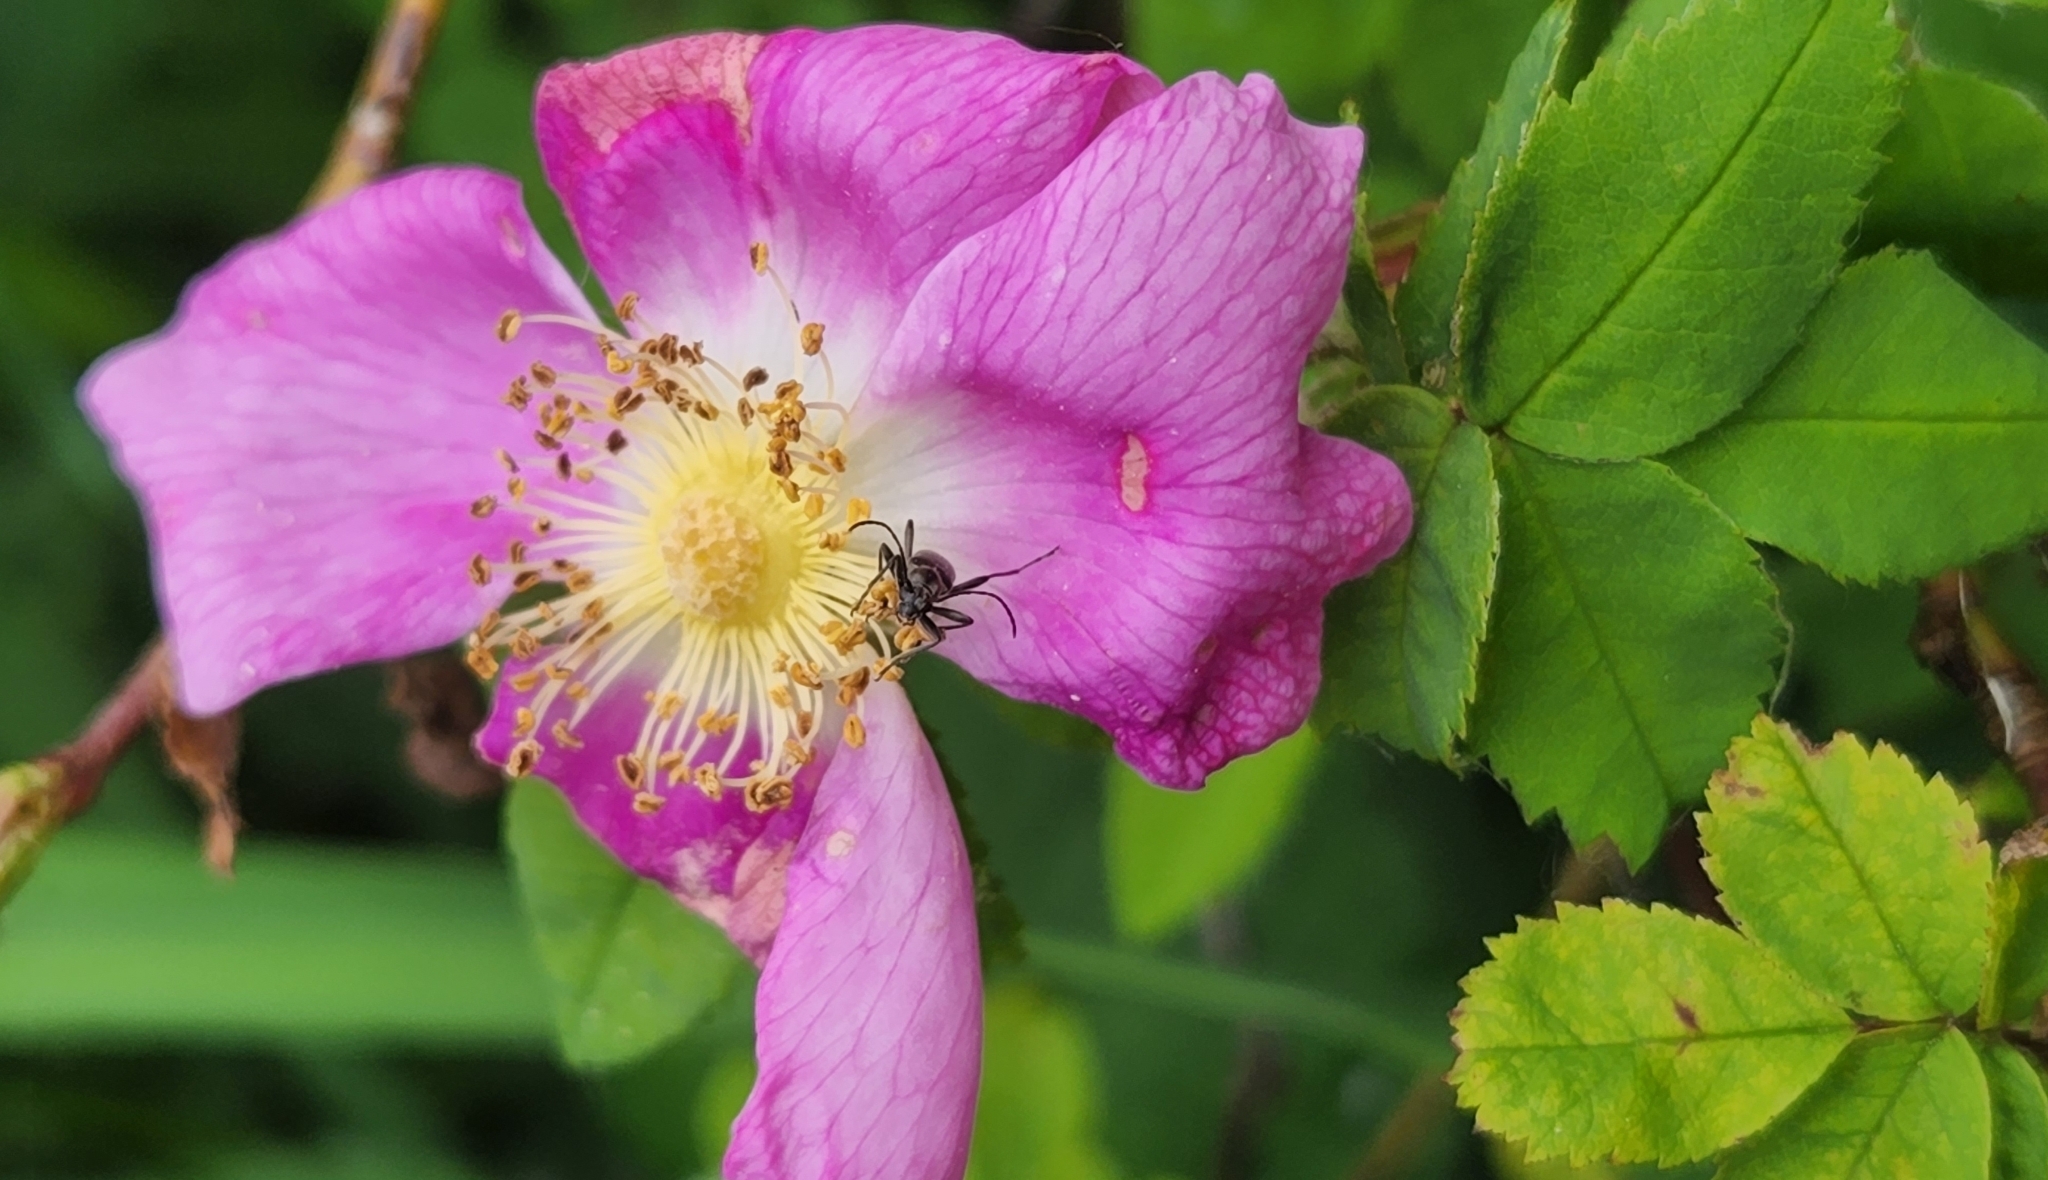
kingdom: Plantae
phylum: Tracheophyta
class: Magnoliopsida
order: Rosales
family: Rosaceae
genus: Rosa
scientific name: Rosa nutkana
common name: Nootka rose
